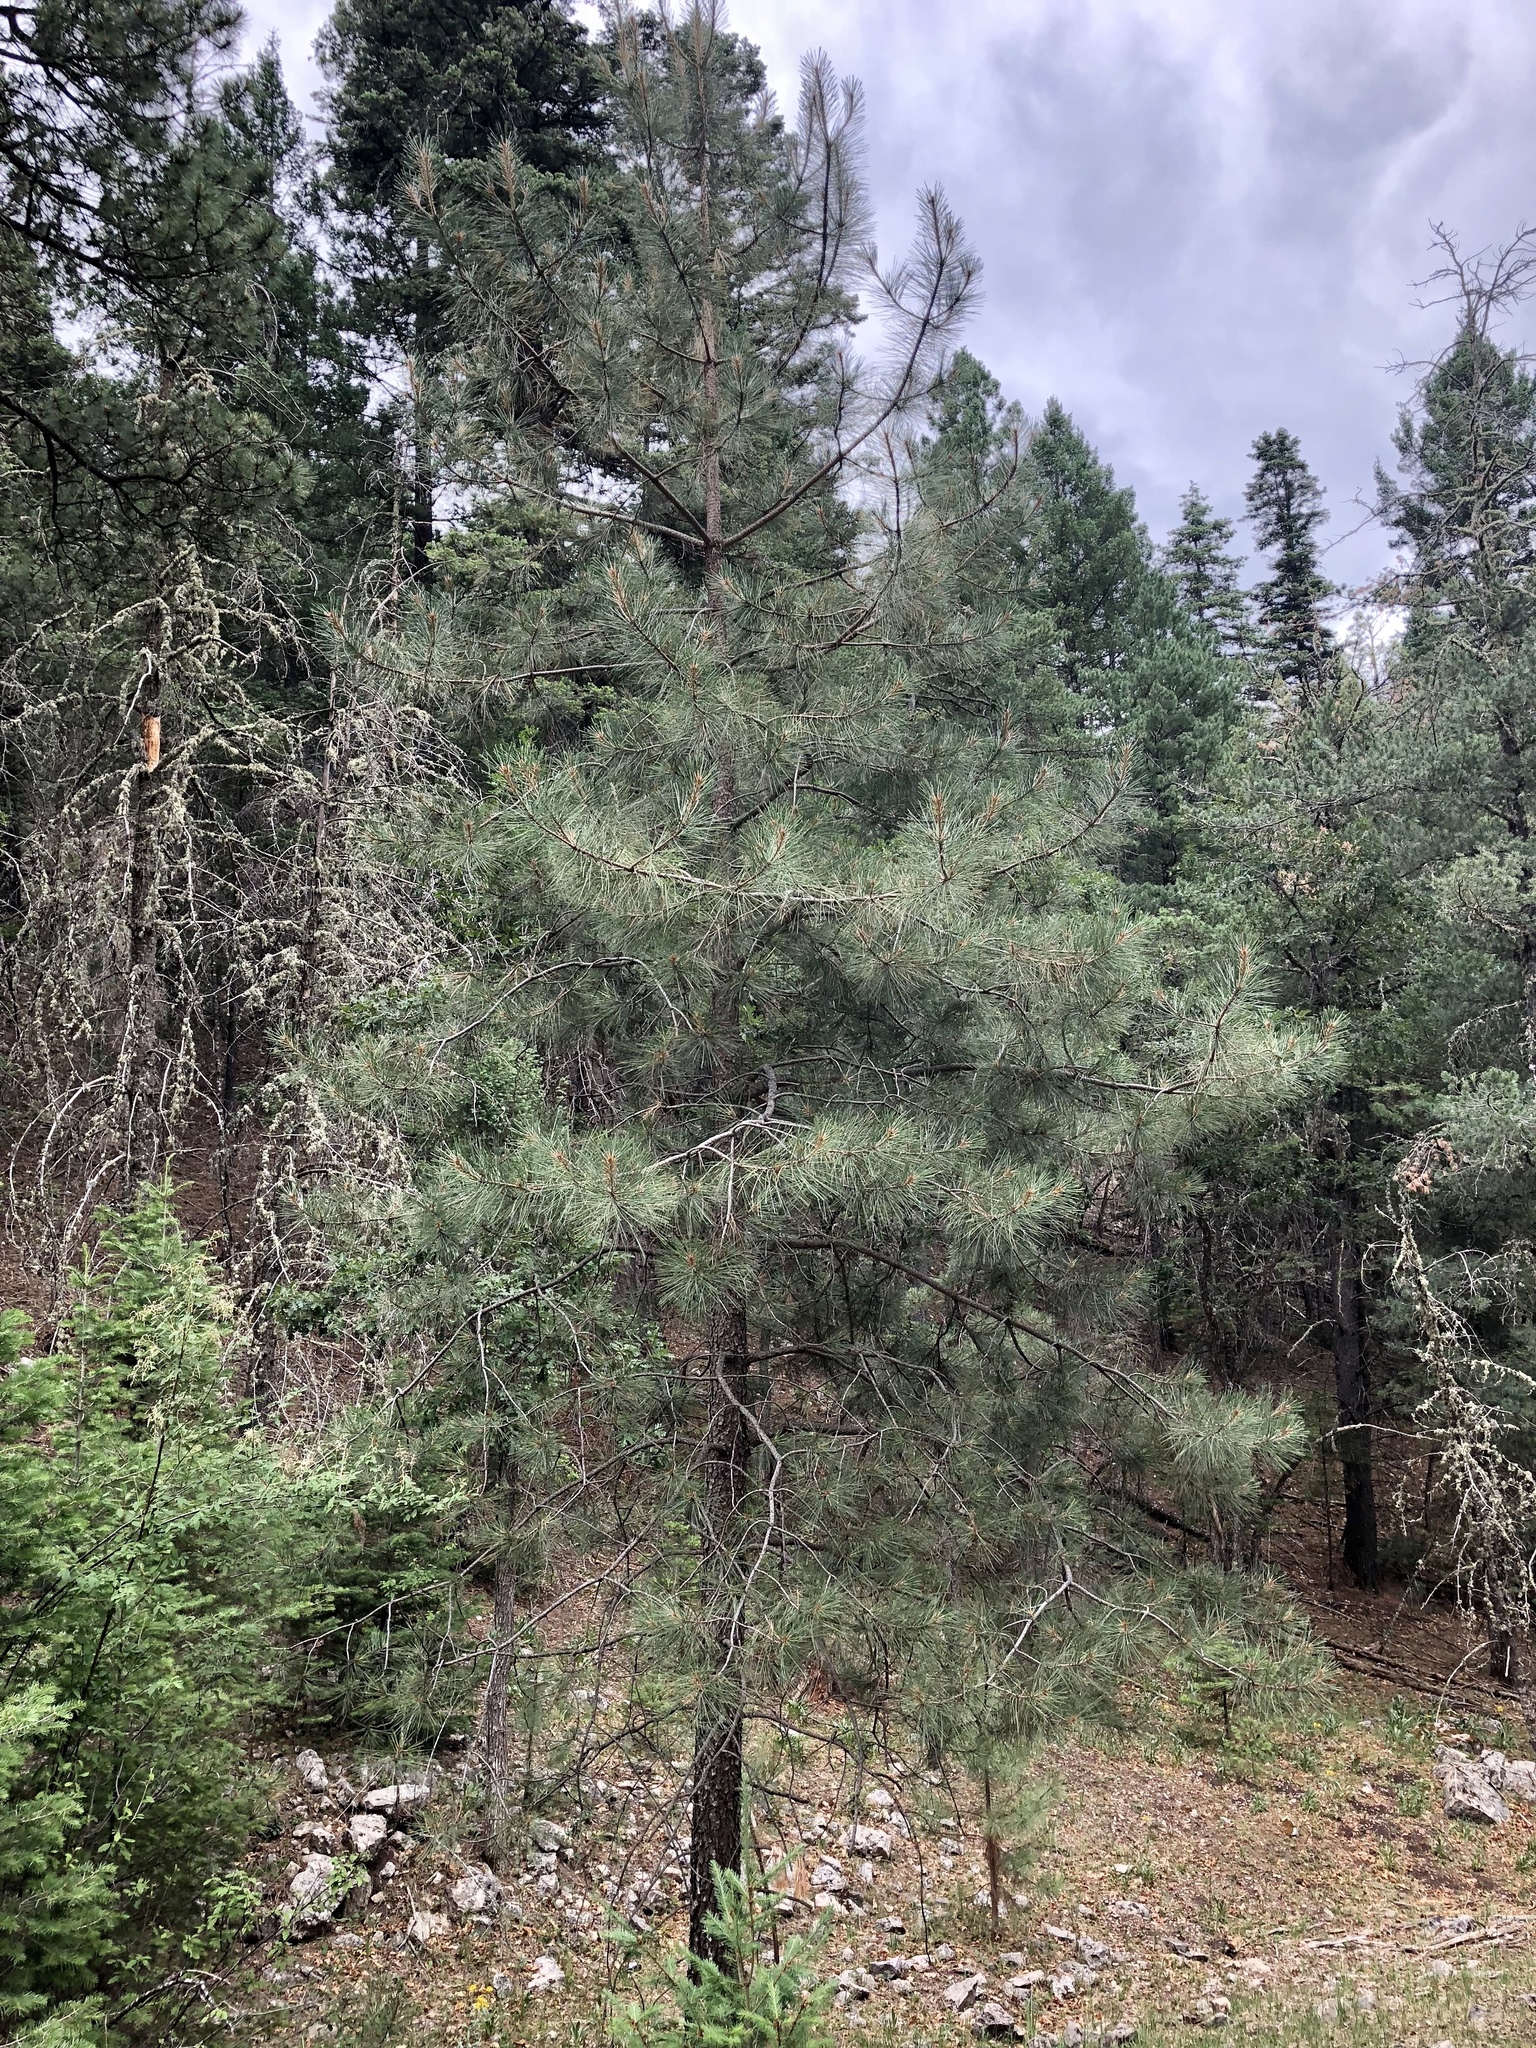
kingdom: Plantae
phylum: Tracheophyta
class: Pinopsida
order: Pinales
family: Pinaceae
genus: Pinus
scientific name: Pinus ponderosa
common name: Western yellow-pine
